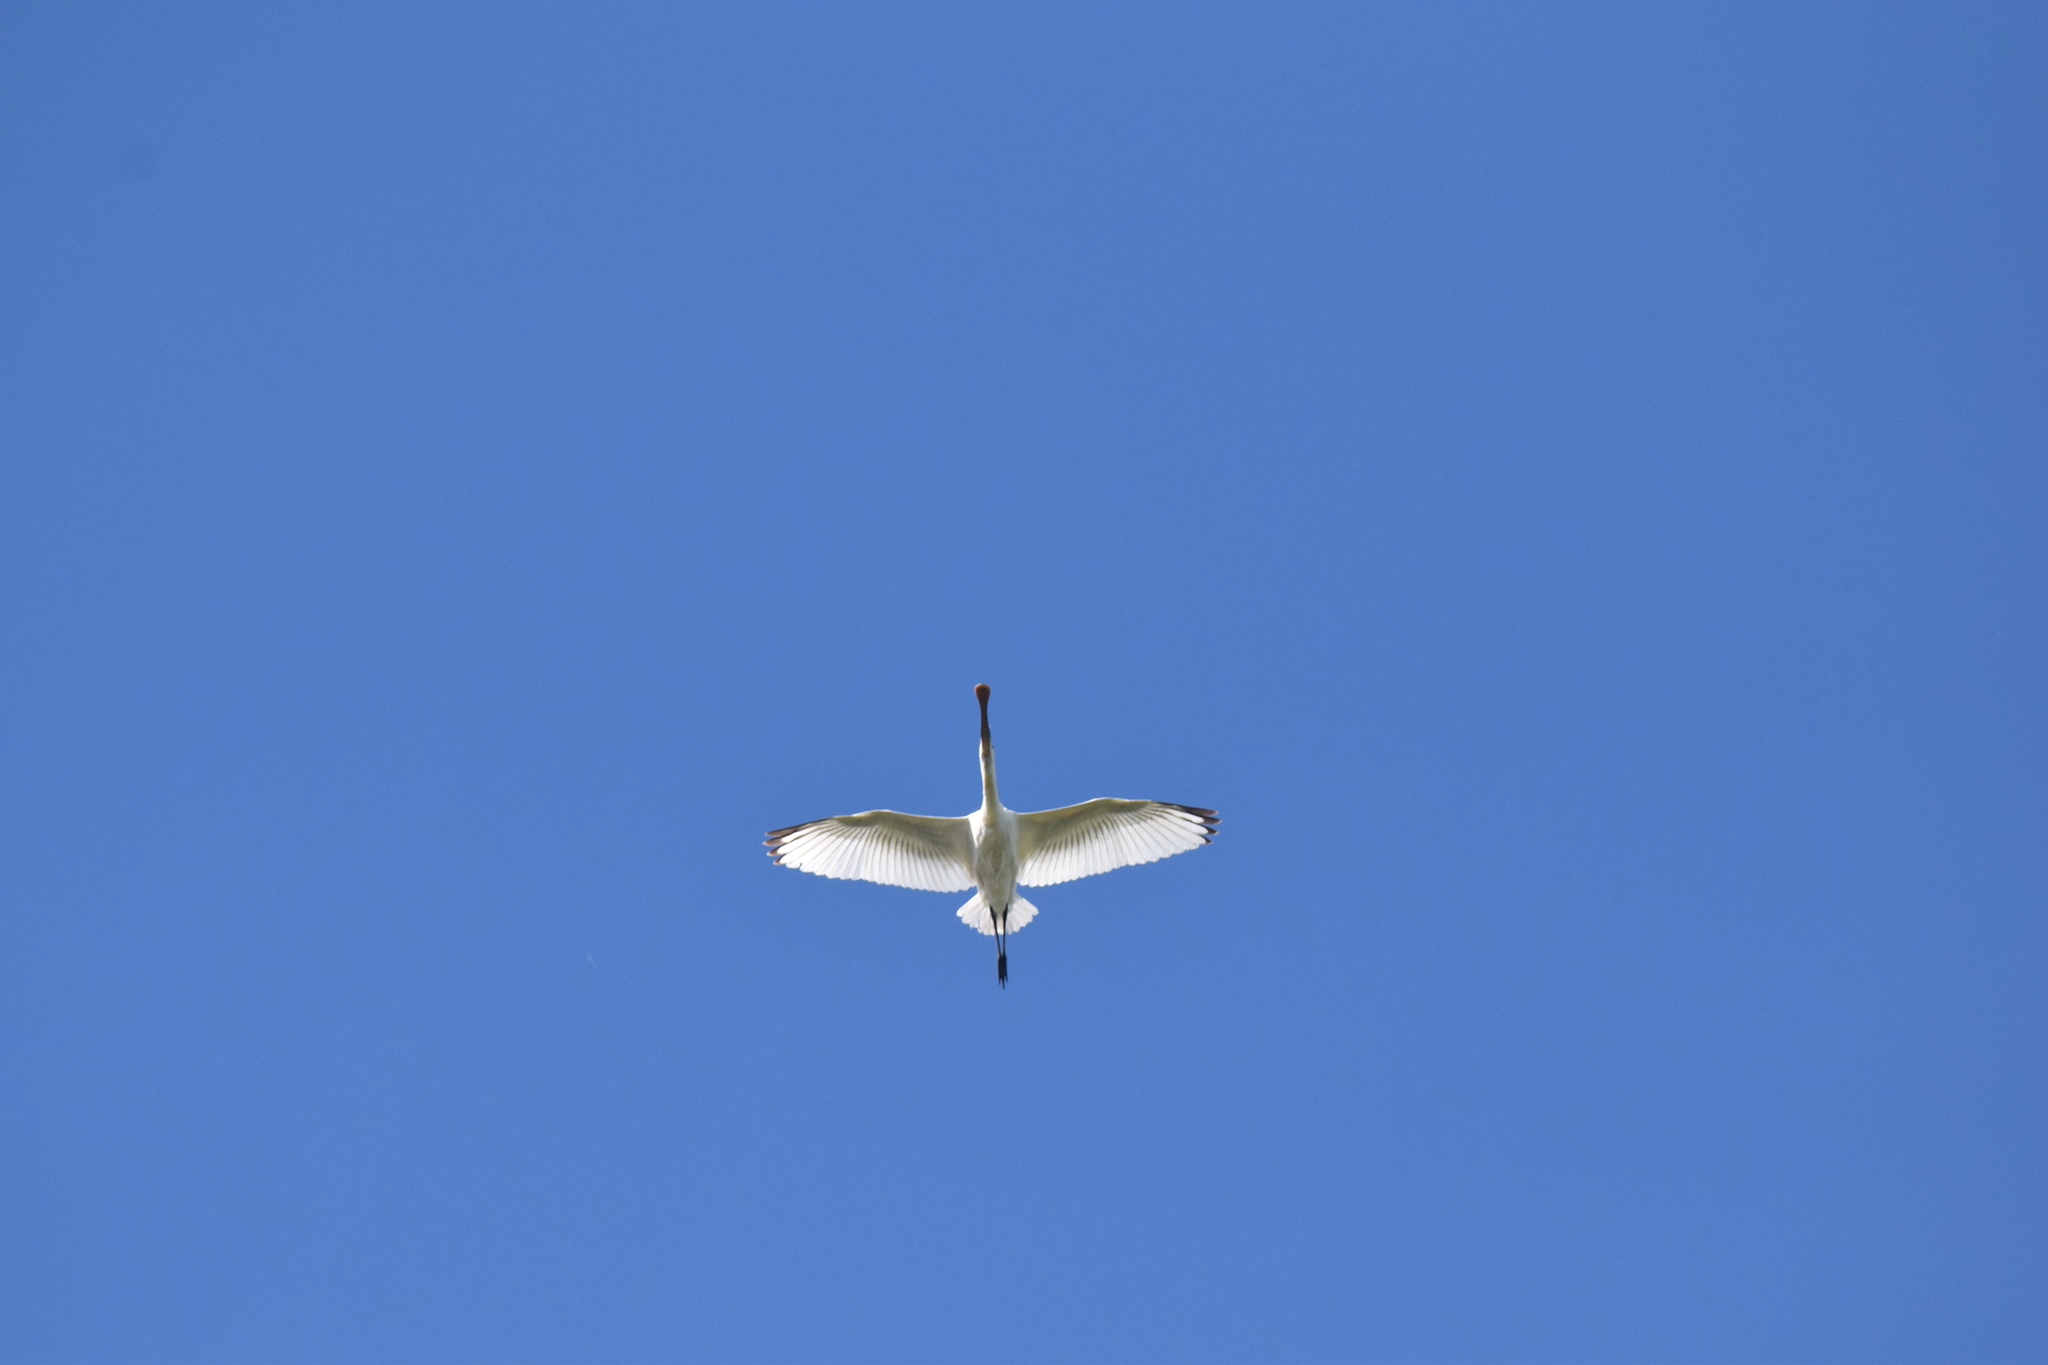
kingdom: Animalia
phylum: Chordata
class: Aves
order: Pelecaniformes
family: Threskiornithidae
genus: Platalea
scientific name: Platalea leucorodia
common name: Eurasian spoonbill
